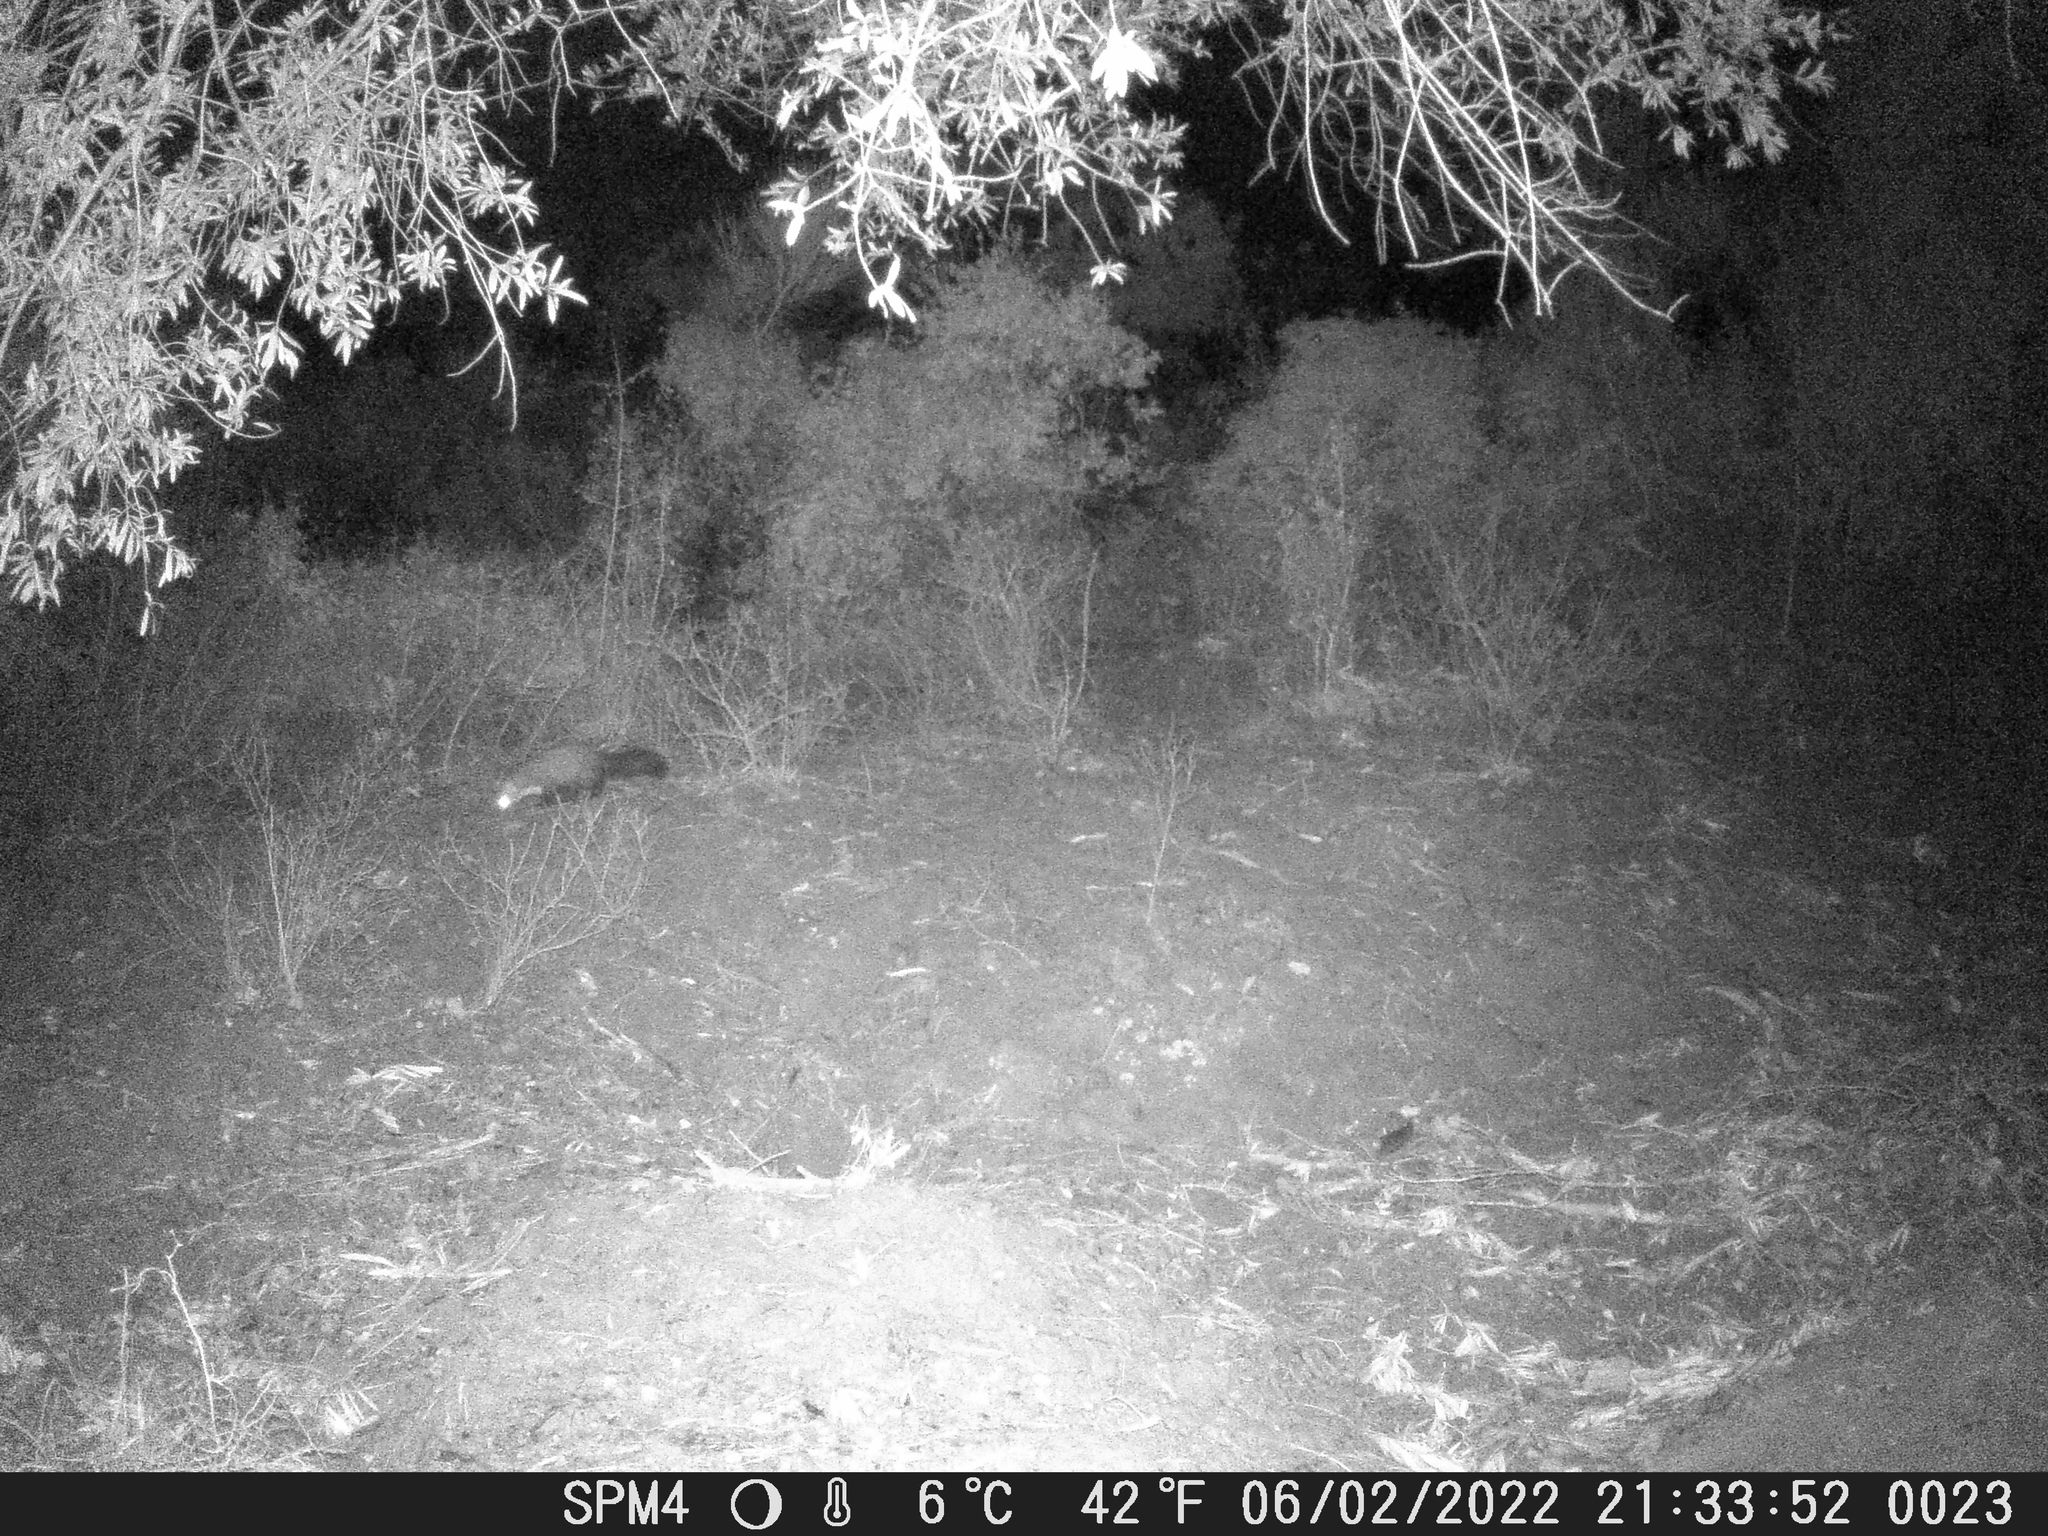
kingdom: Animalia
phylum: Chordata
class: Mammalia
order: Carnivora
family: Mustelidae
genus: Martes
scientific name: Martes foina
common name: Beech marten
